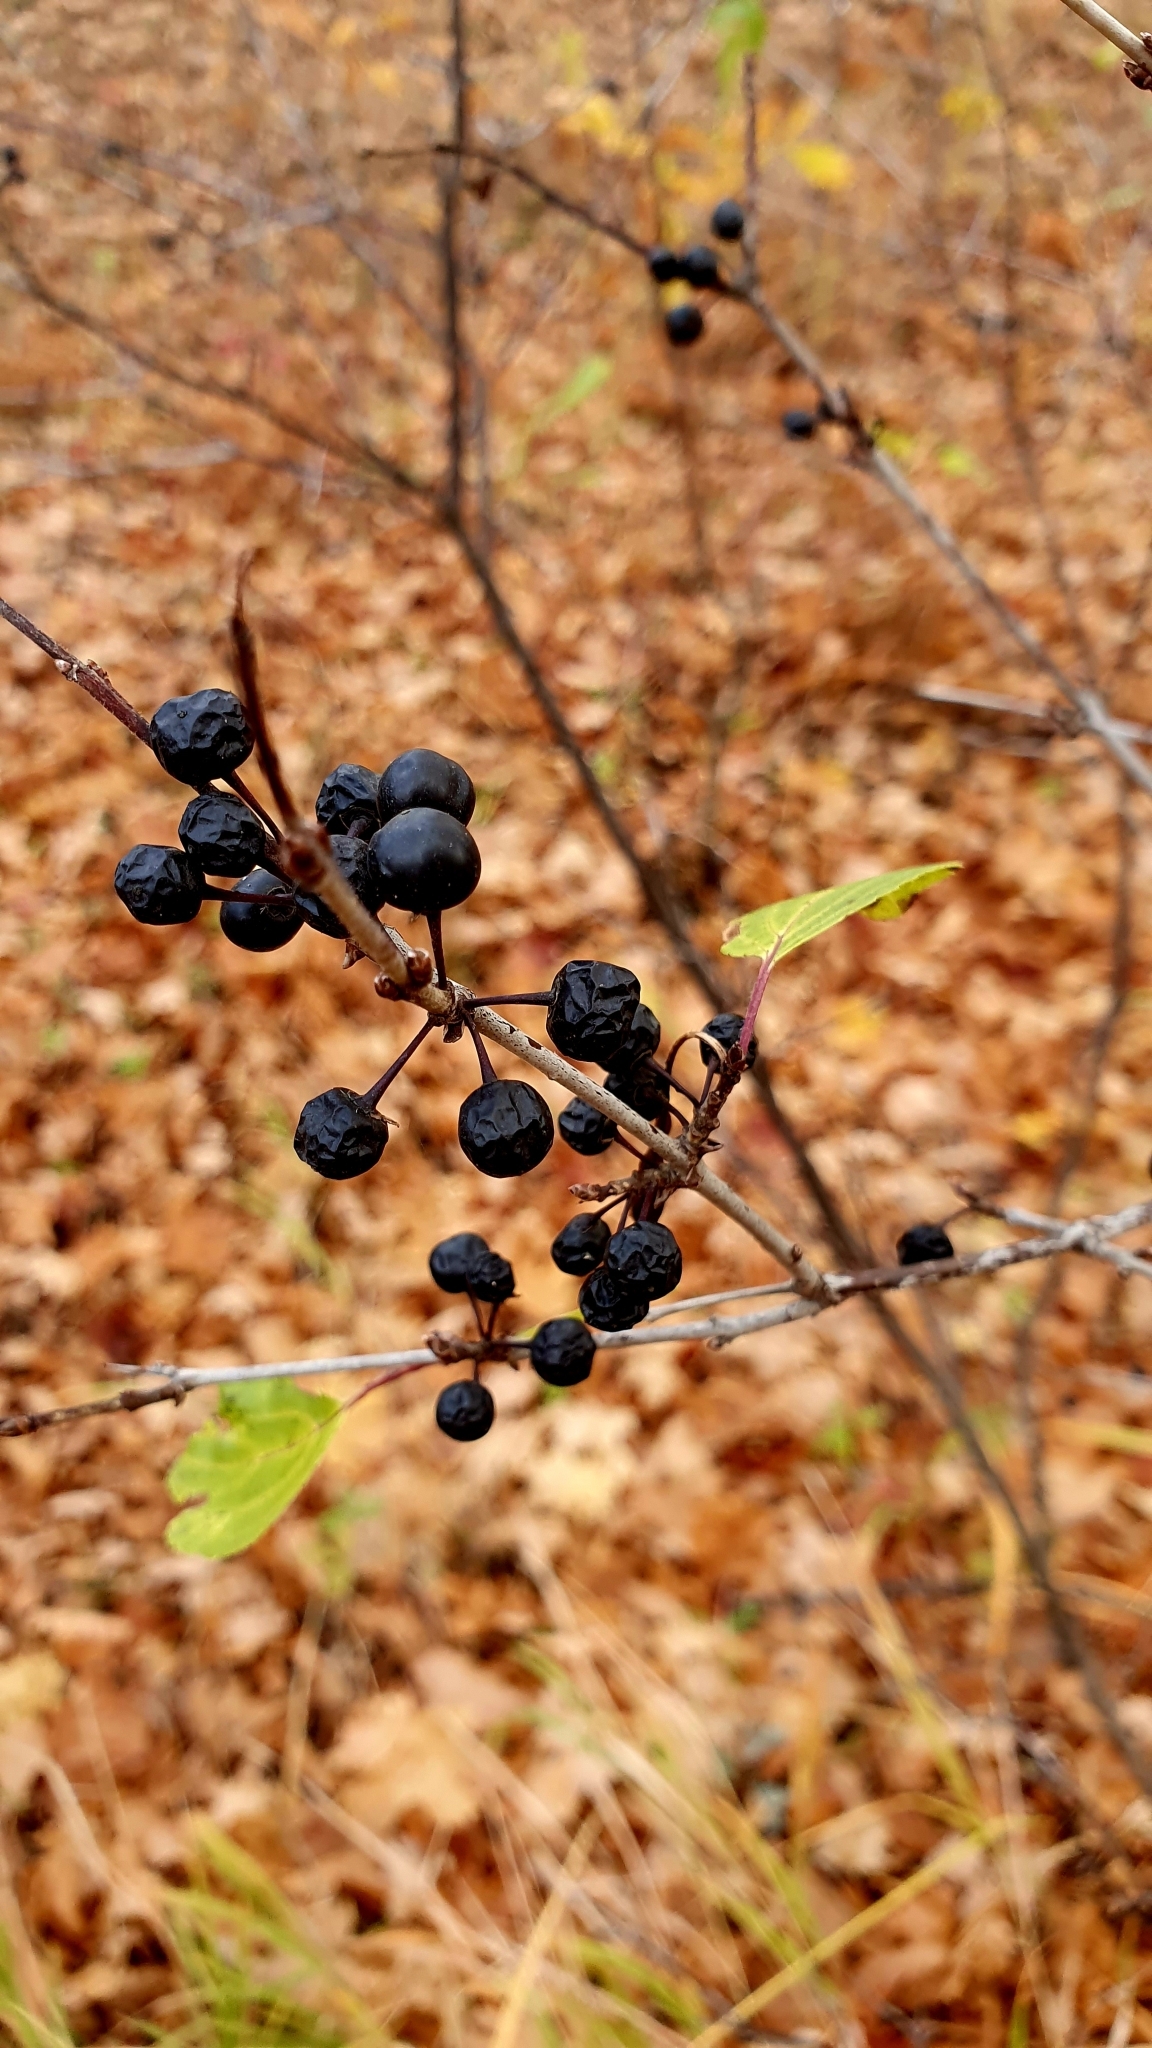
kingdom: Plantae
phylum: Tracheophyta
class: Magnoliopsida
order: Rosales
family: Rhamnaceae
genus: Rhamnus
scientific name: Rhamnus cathartica
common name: Common buckthorn
